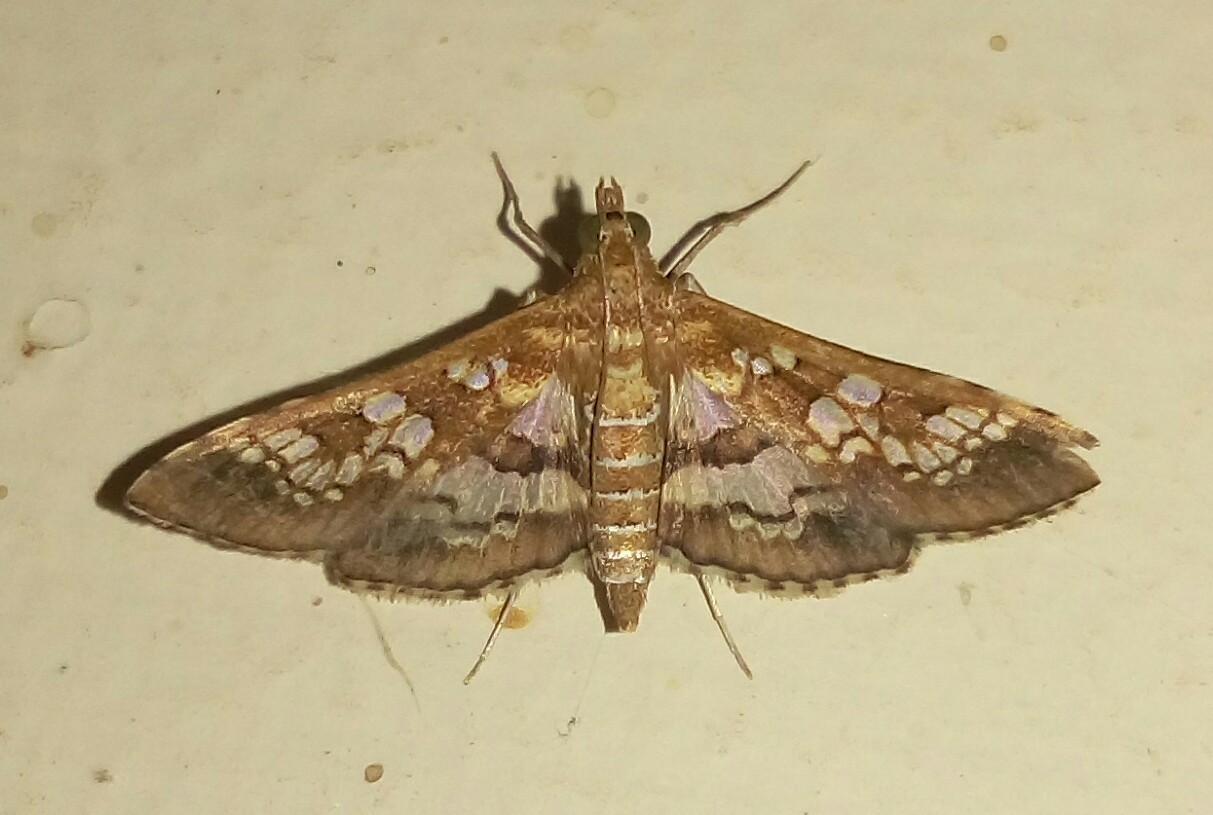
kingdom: Animalia
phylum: Arthropoda
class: Insecta
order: Lepidoptera
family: Crambidae
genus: Sameodes
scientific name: Sameodes cancellalis
